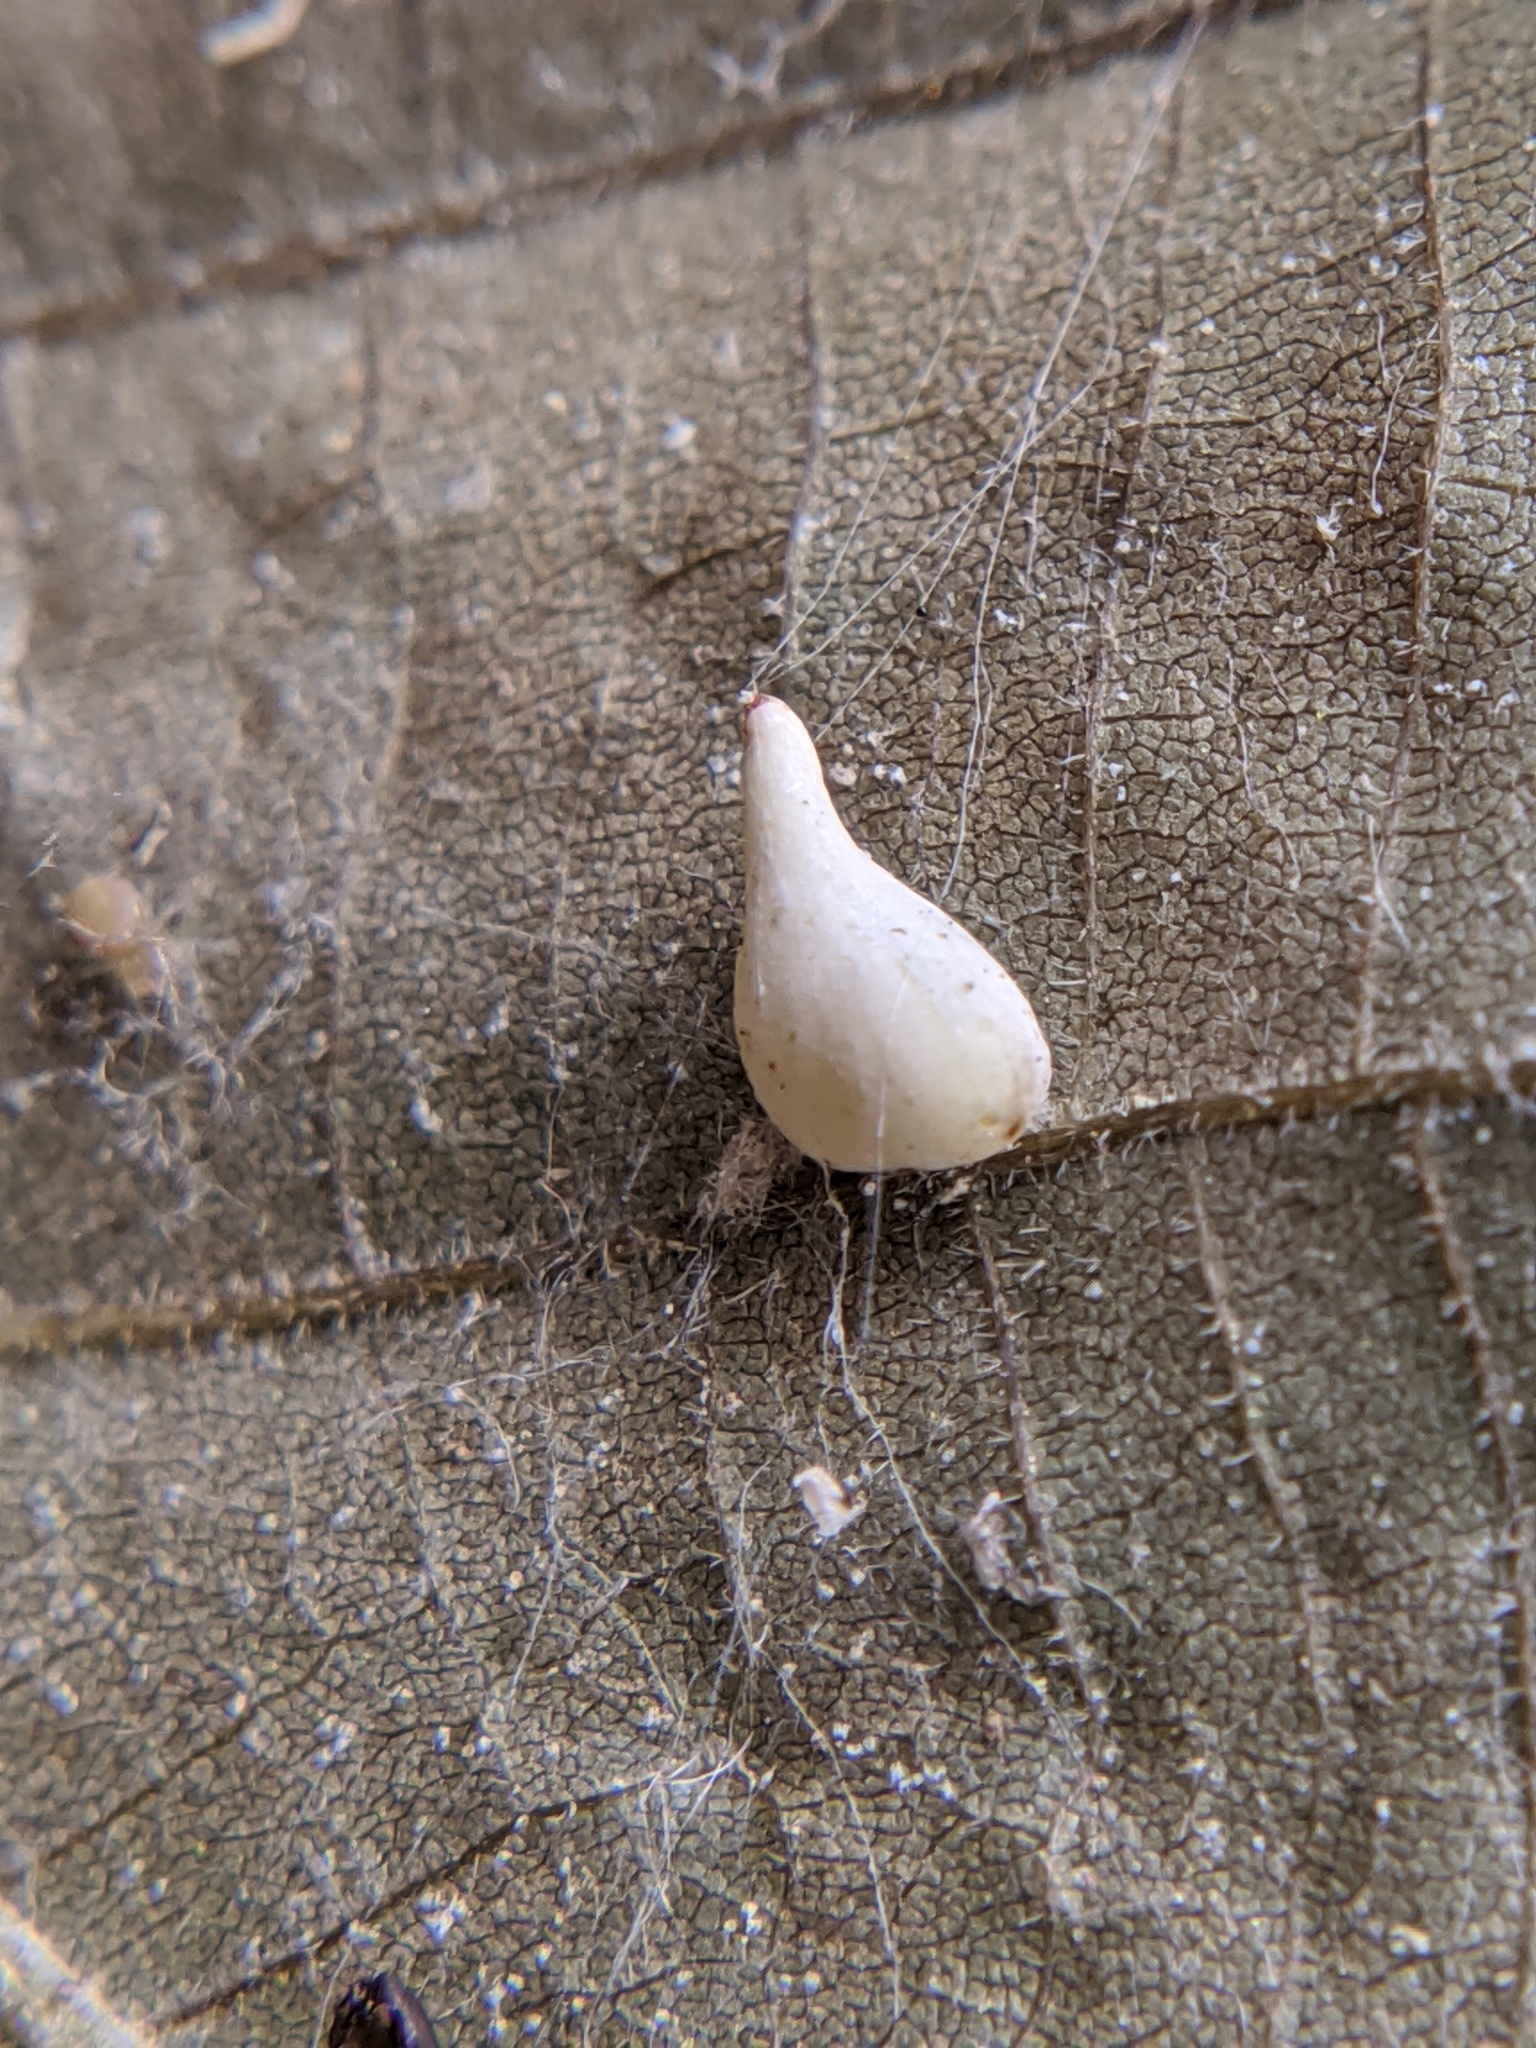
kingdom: Animalia
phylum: Arthropoda
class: Insecta
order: Diptera
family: Cecidomyiidae
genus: Caryomyia
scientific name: Caryomyia caryaecola
